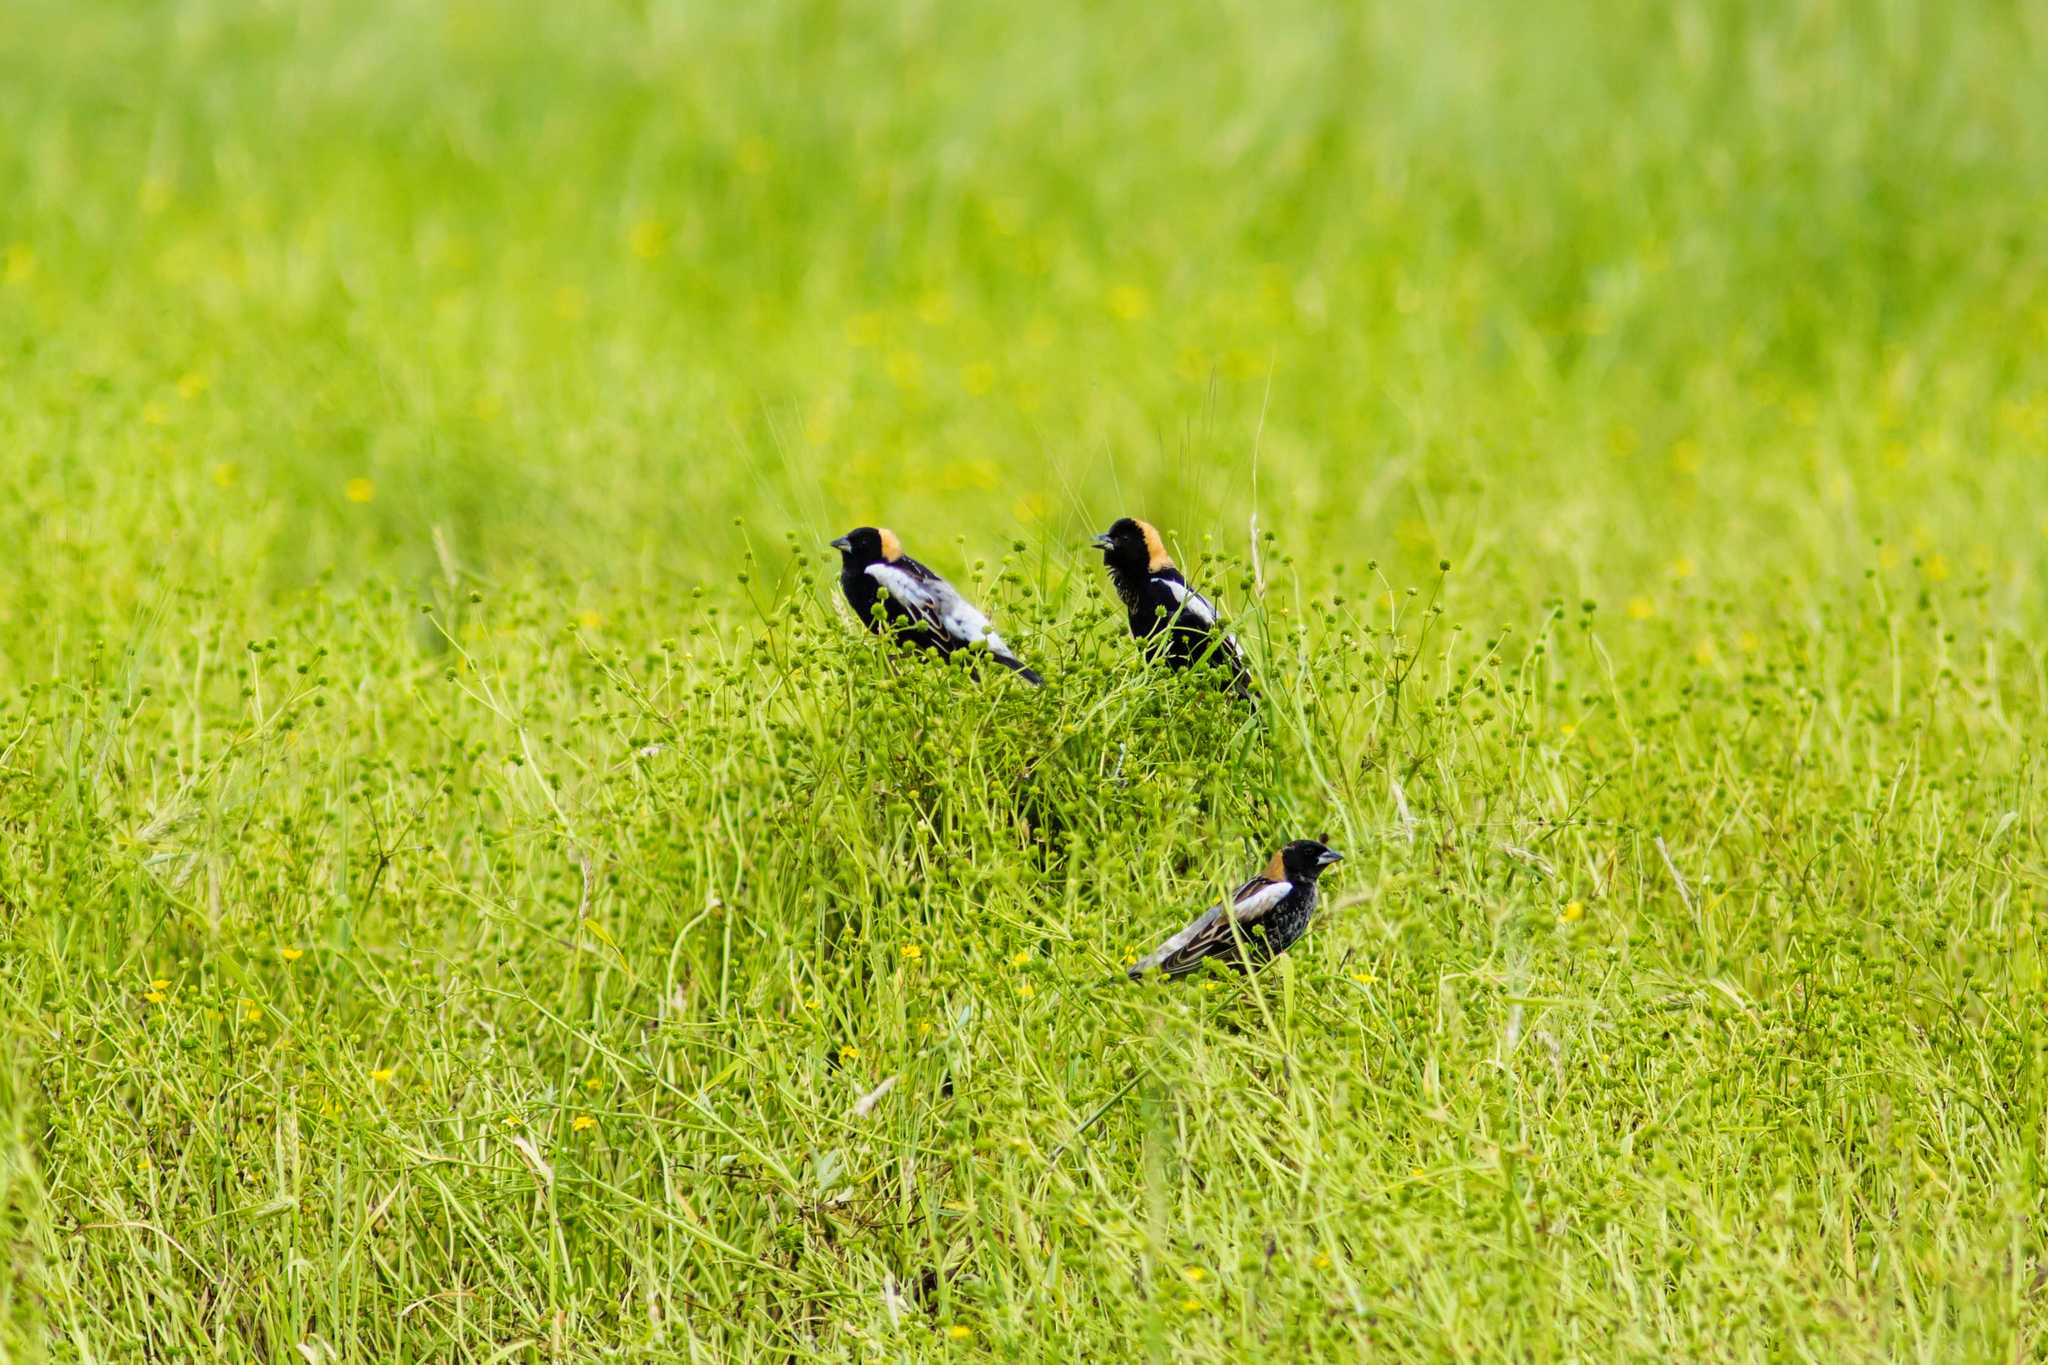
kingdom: Animalia
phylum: Chordata
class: Aves
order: Passeriformes
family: Icteridae
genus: Dolichonyx
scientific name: Dolichonyx oryzivorus
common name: Bobolink
